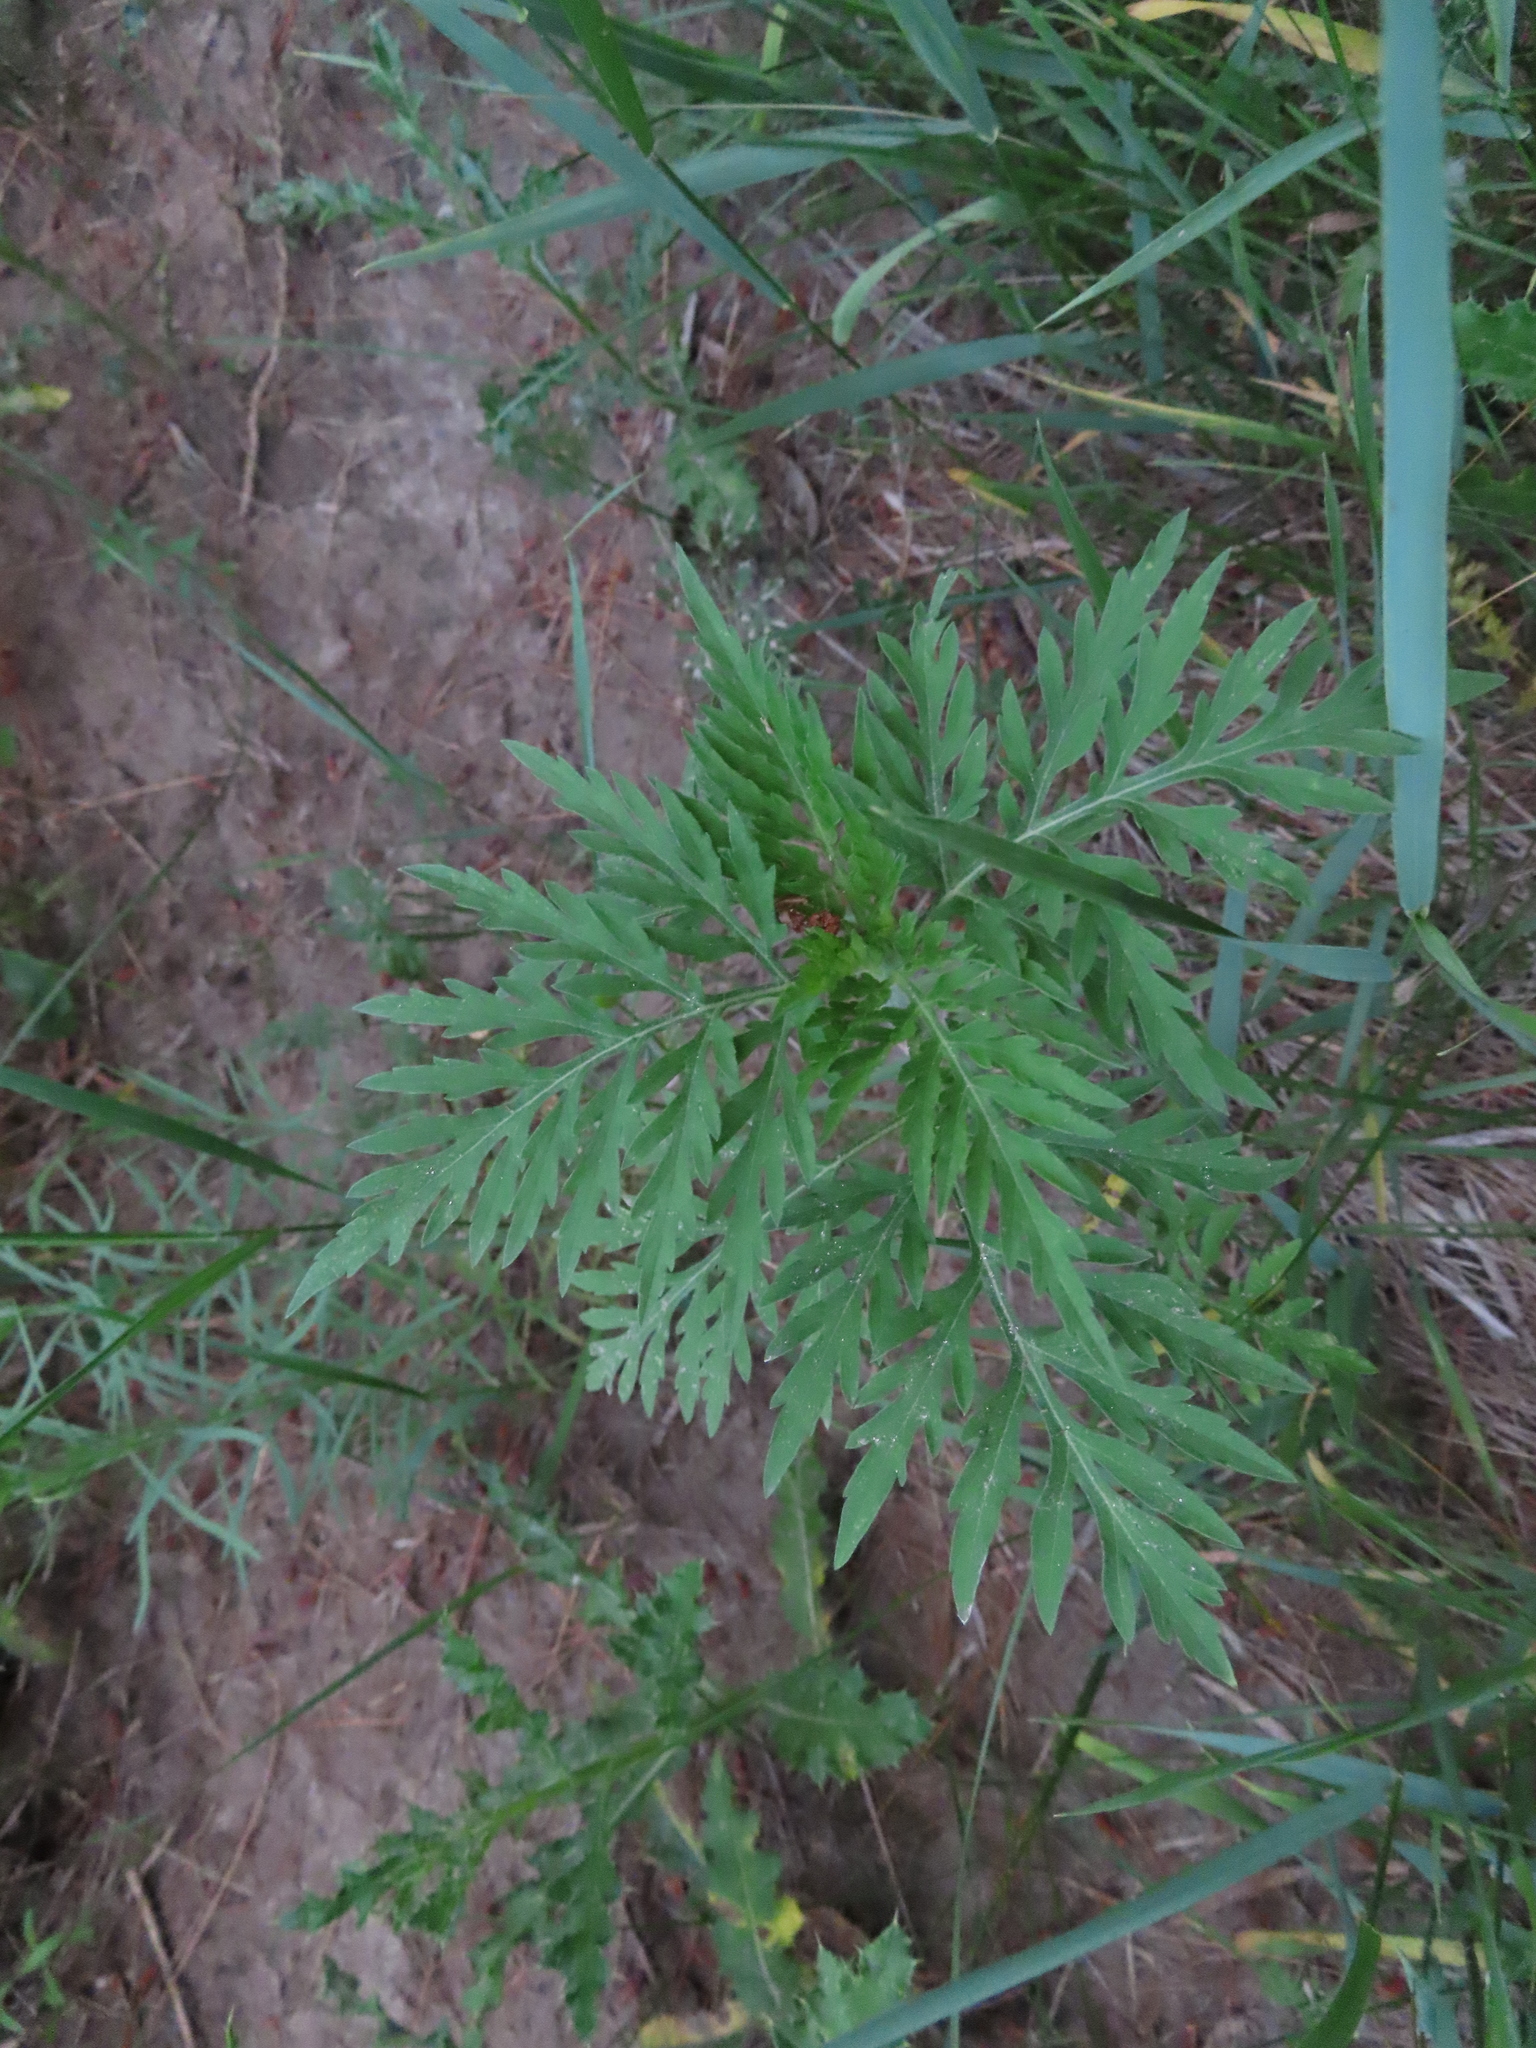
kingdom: Plantae
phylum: Tracheophyta
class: Magnoliopsida
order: Asterales
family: Asteraceae
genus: Ambrosia
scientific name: Ambrosia artemisiifolia
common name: Annual ragweed
